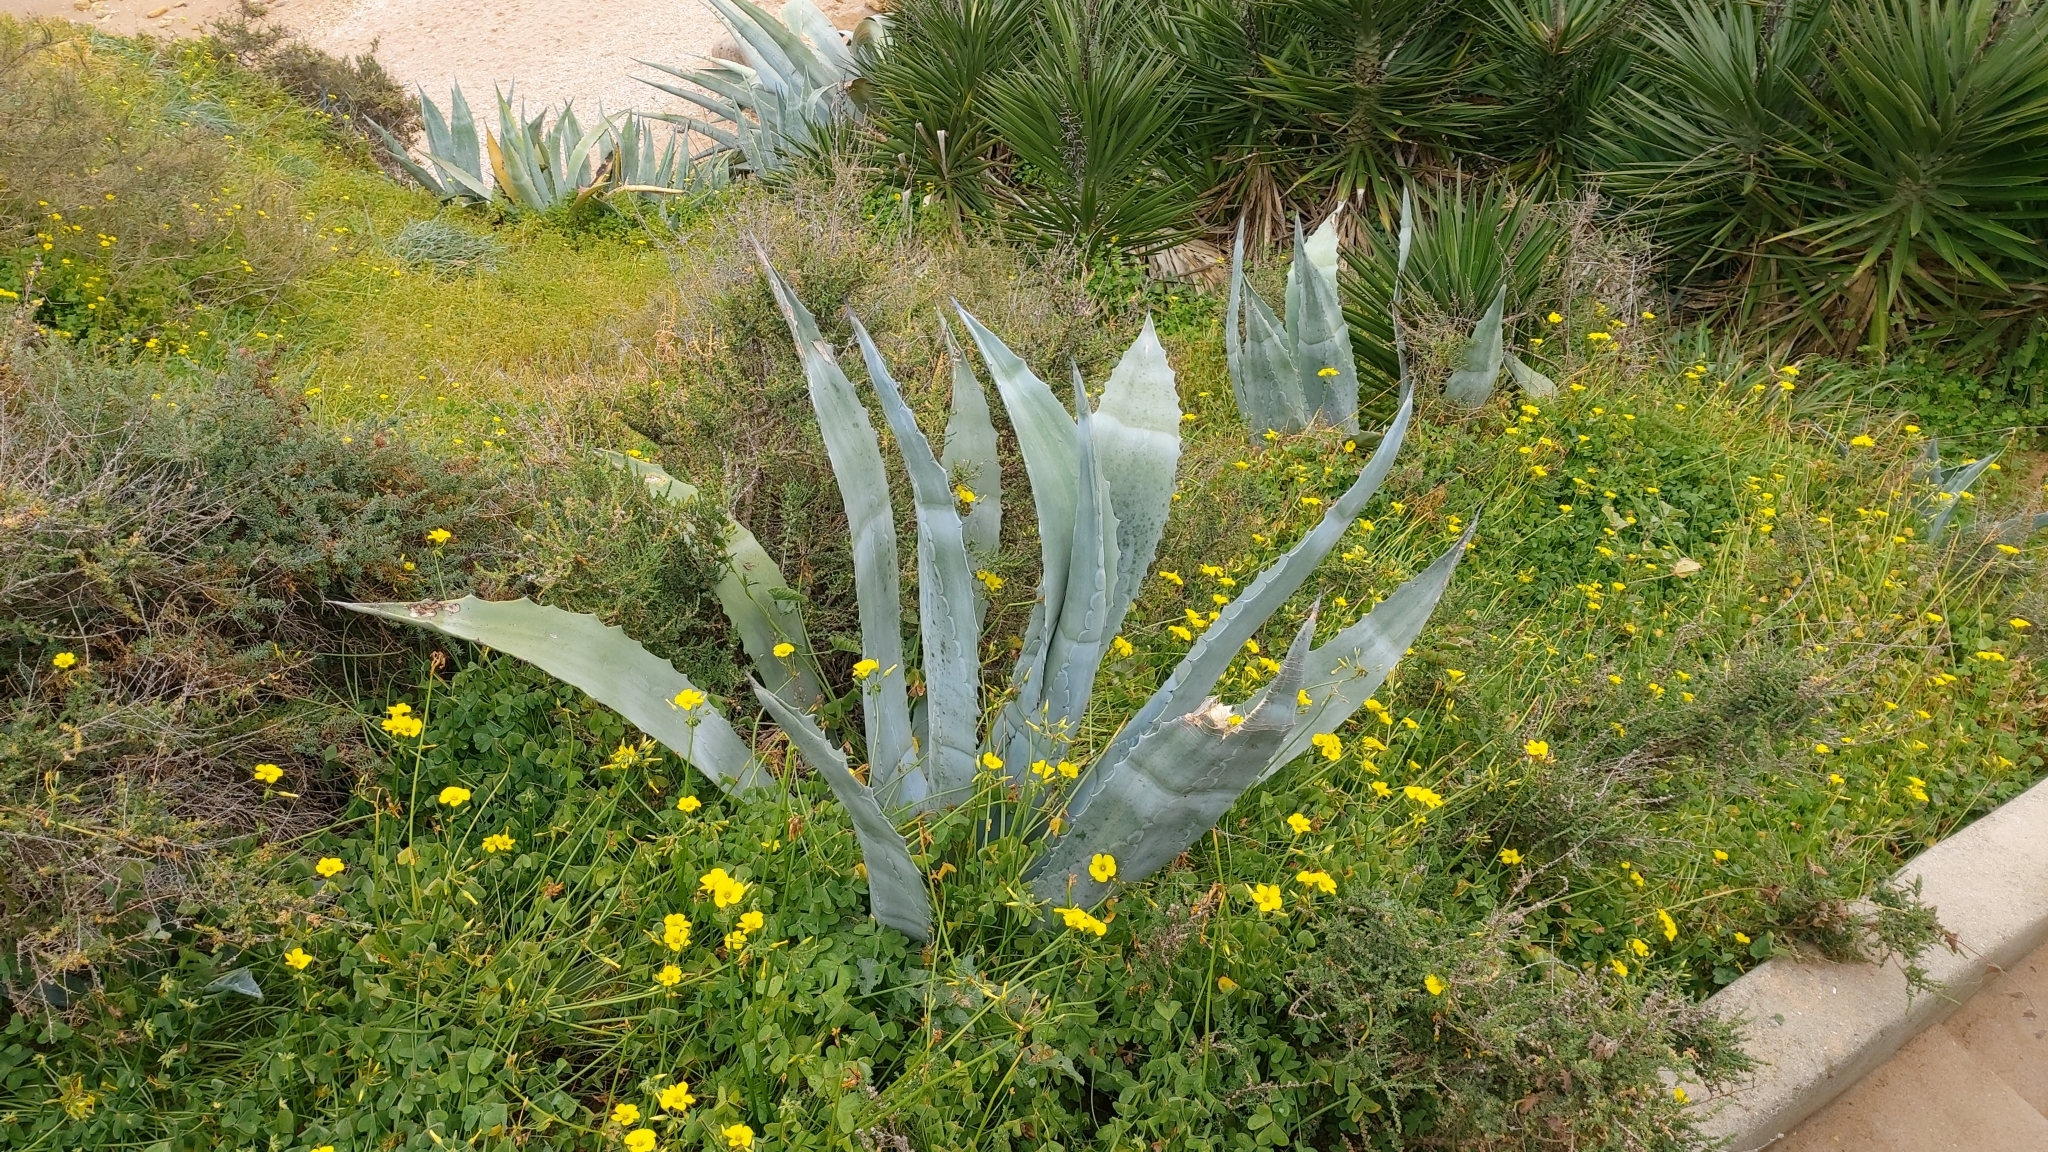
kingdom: Plantae
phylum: Tracheophyta
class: Liliopsida
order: Asparagales
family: Asparagaceae
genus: Agave
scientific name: Agave americana
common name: Centuryplant
